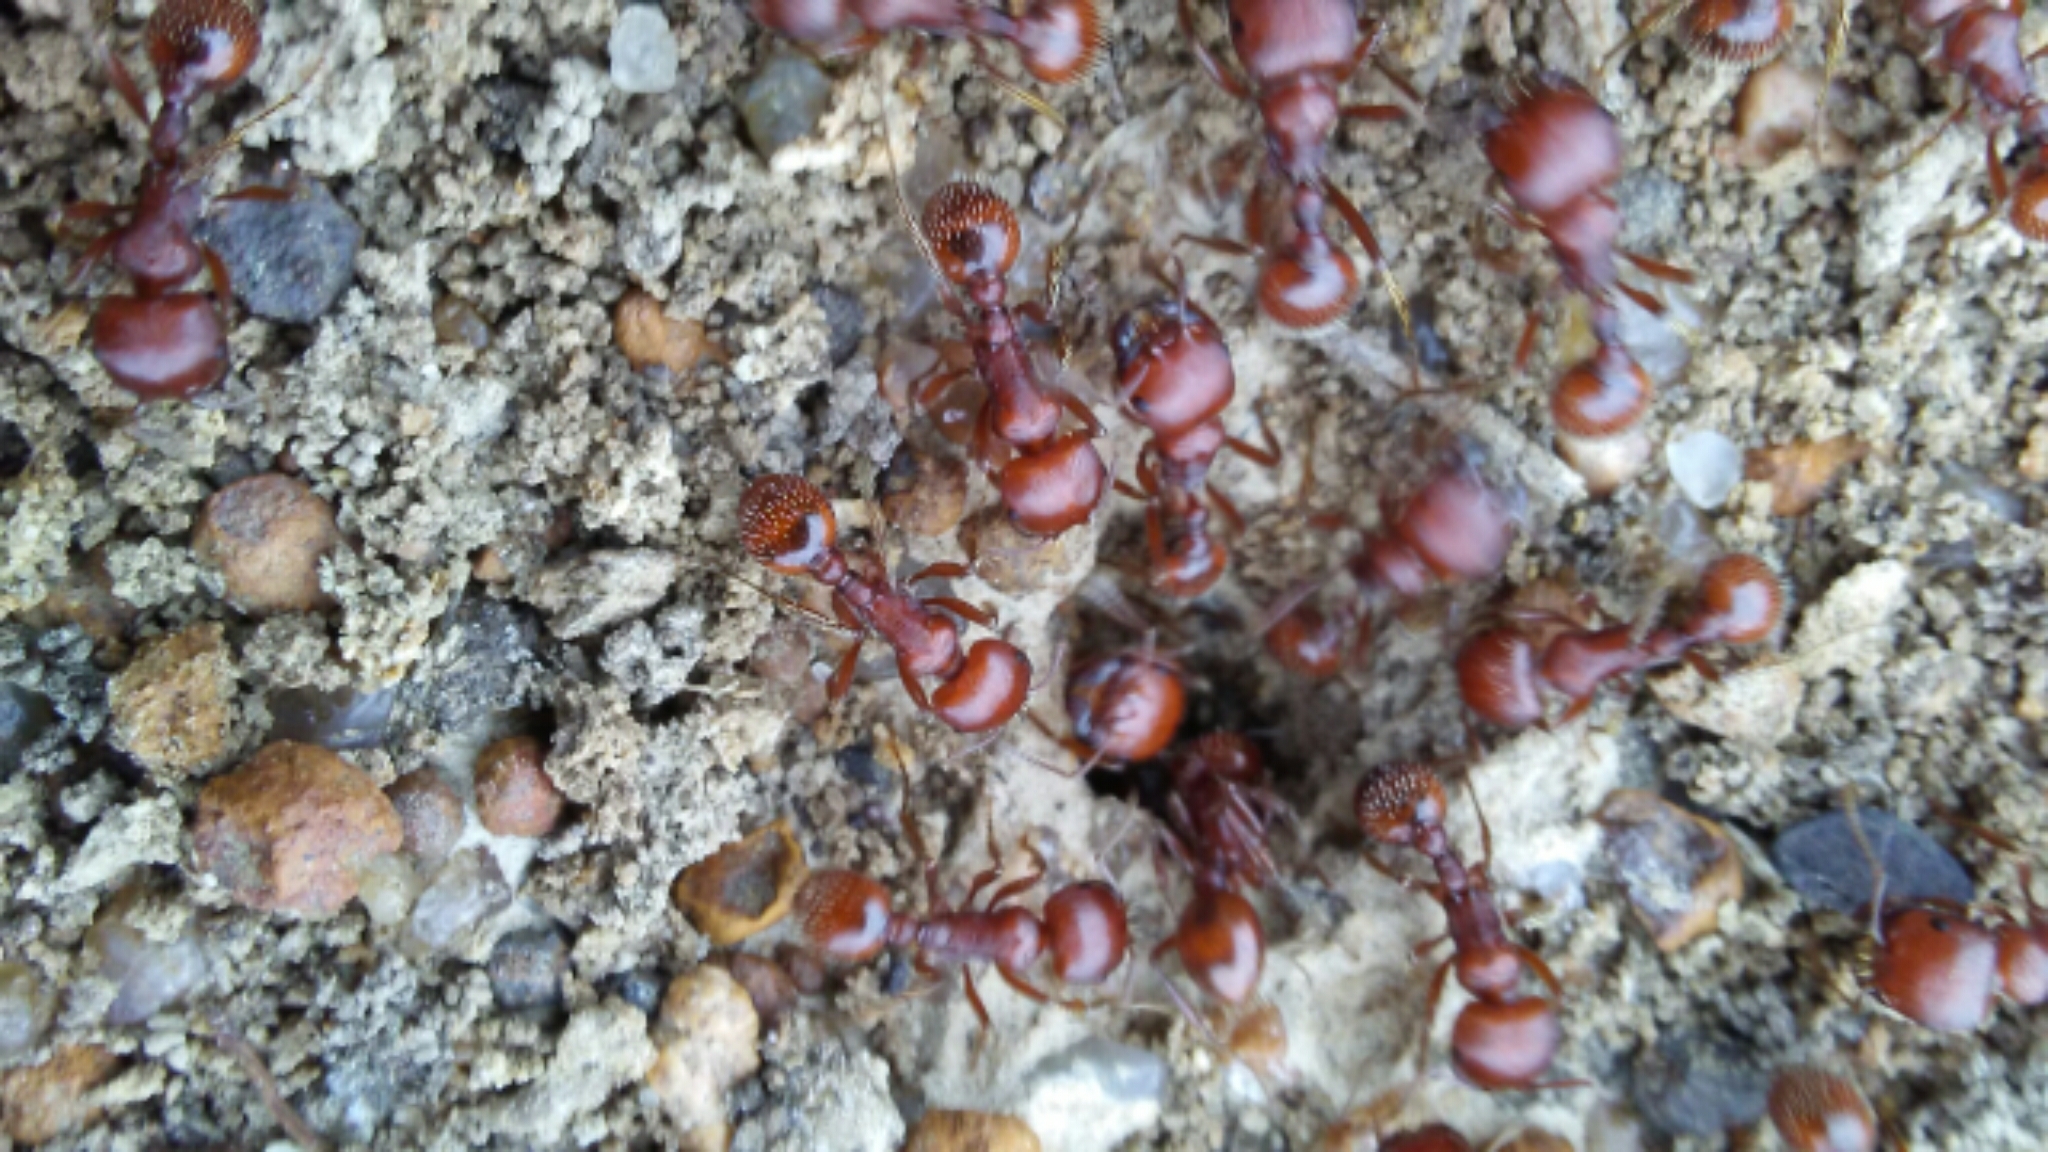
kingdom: Animalia
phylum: Arthropoda
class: Insecta
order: Hymenoptera
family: Formicidae
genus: Pogonomyrmex
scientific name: Pogonomyrmex barbatus
